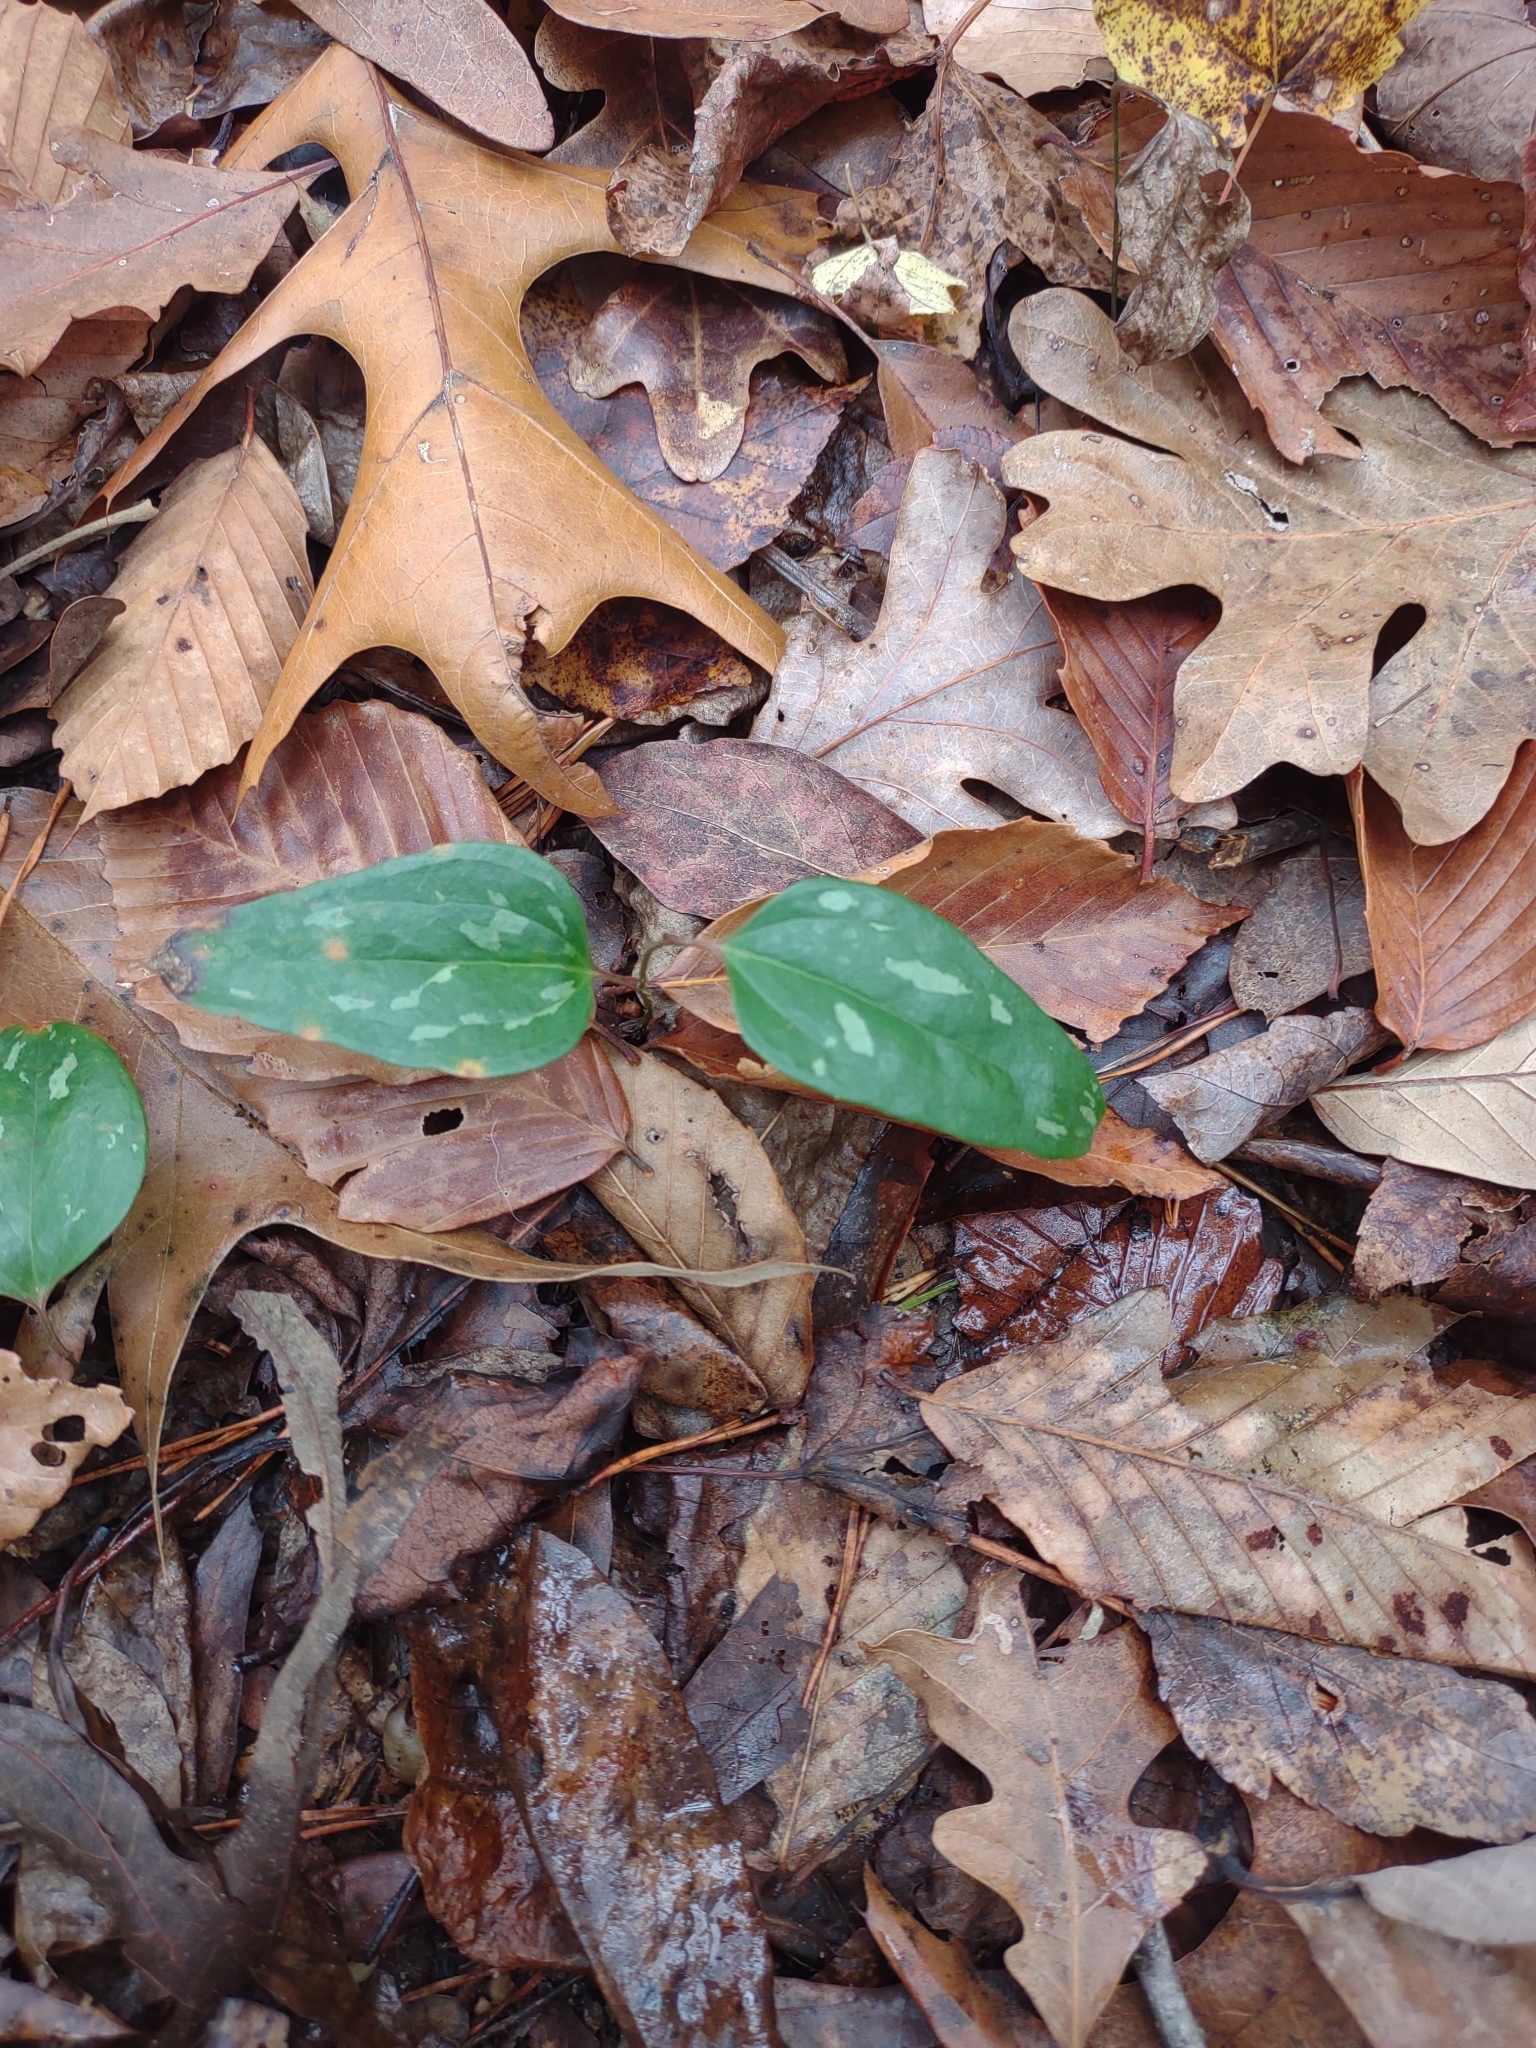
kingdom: Plantae
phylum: Tracheophyta
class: Liliopsida
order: Liliales
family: Smilacaceae
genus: Smilax
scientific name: Smilax glauca
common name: Cat greenbrier
